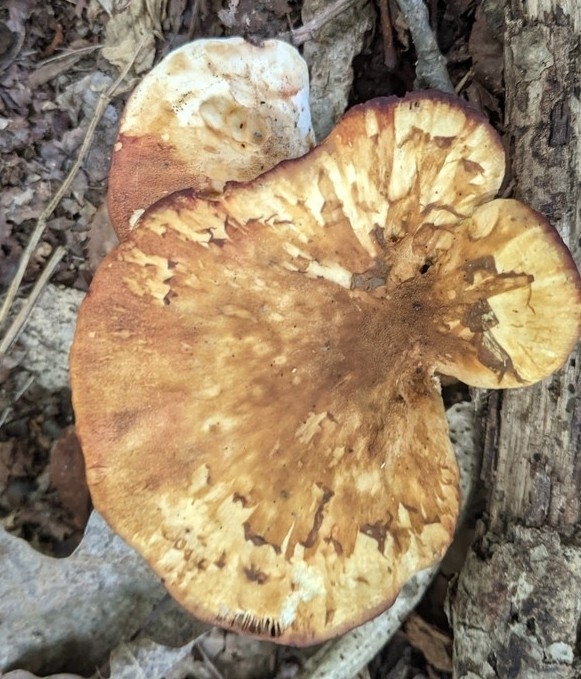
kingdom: Fungi
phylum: Basidiomycota
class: Agaricomycetes
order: Boletales
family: Tapinellaceae
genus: Tapinella
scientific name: Tapinella atrotomentosa
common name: Velvet rollrim
